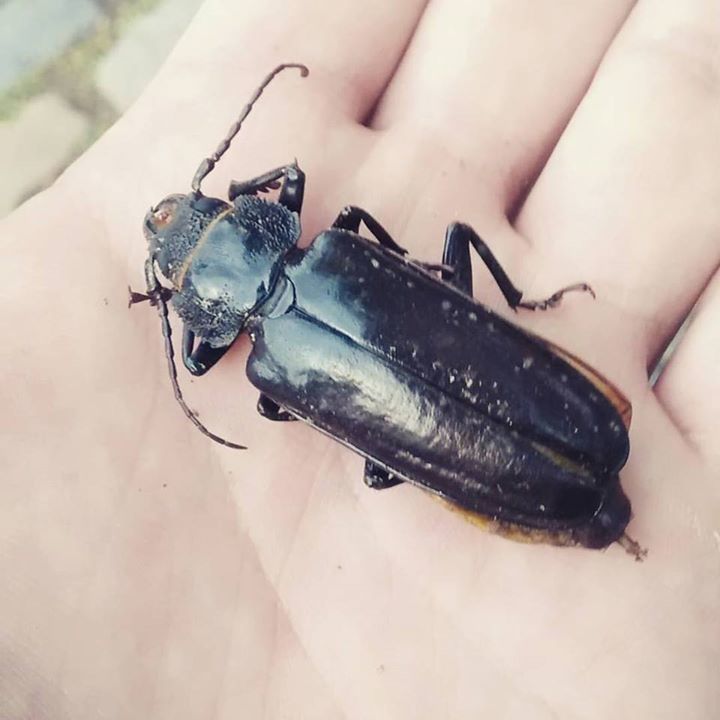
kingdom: Animalia
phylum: Arthropoda
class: Insecta
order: Coleoptera
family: Cerambycidae
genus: Mallodon
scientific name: Mallodon dasystomum
